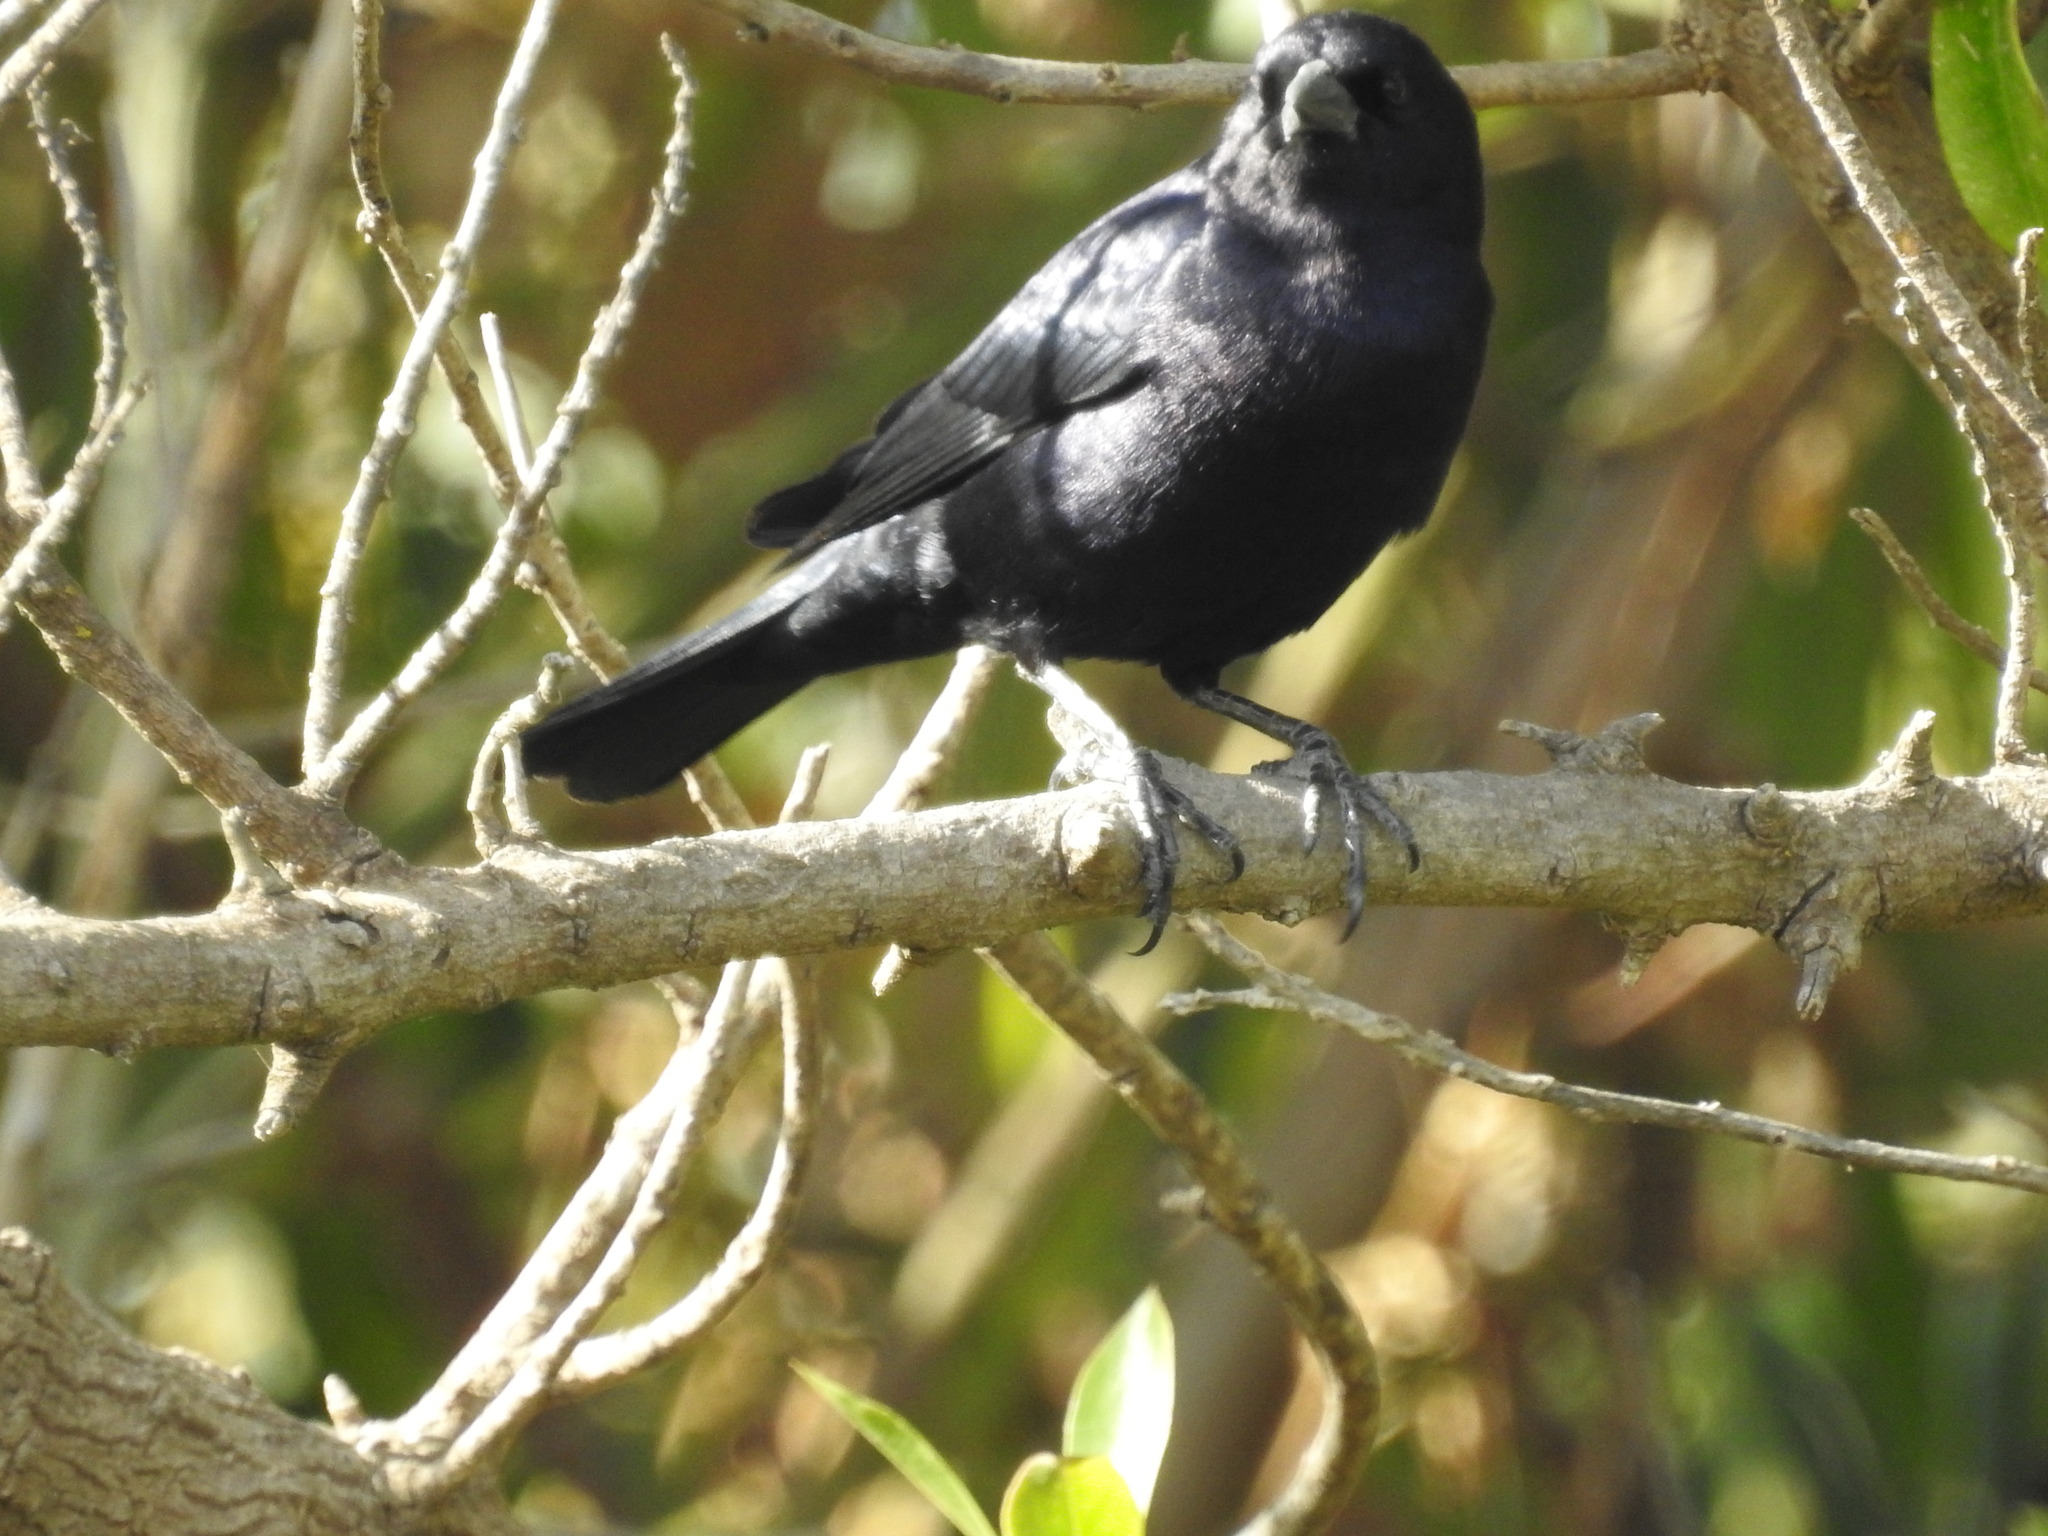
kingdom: Animalia
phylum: Chordata
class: Aves
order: Passeriformes
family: Icteridae
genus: Molothrus
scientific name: Molothrus bonariensis
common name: Shiny cowbird
